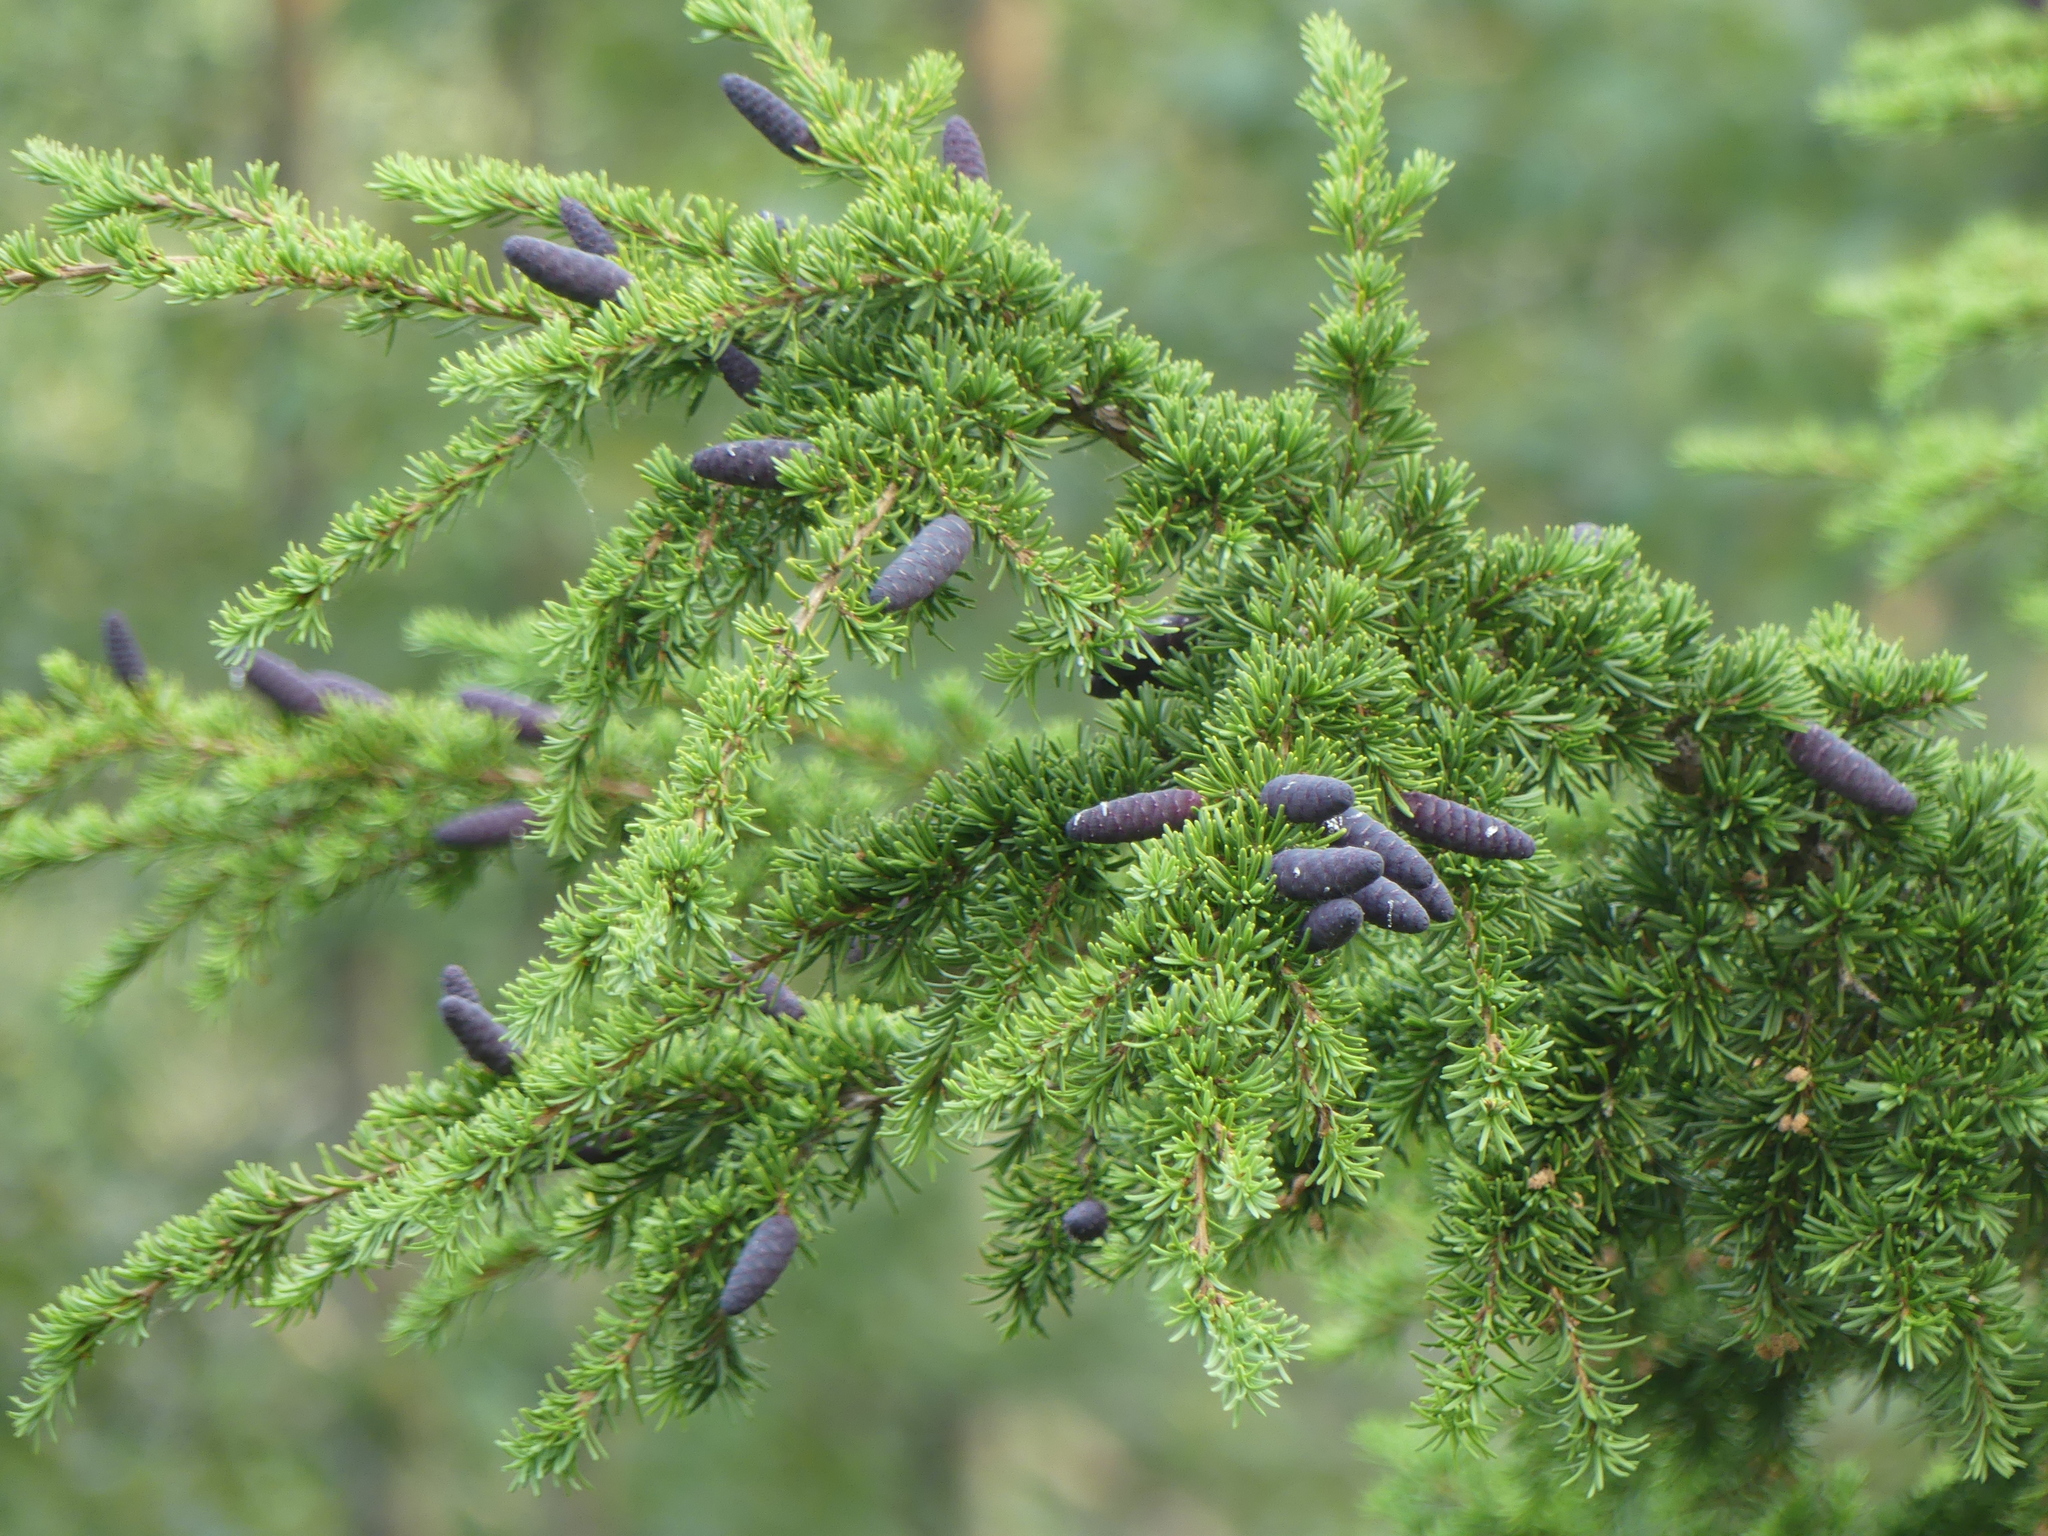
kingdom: Plantae
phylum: Tracheophyta
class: Pinopsida
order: Pinales
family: Pinaceae
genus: Tsuga
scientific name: Tsuga mertensiana
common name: Mountain hemlock
